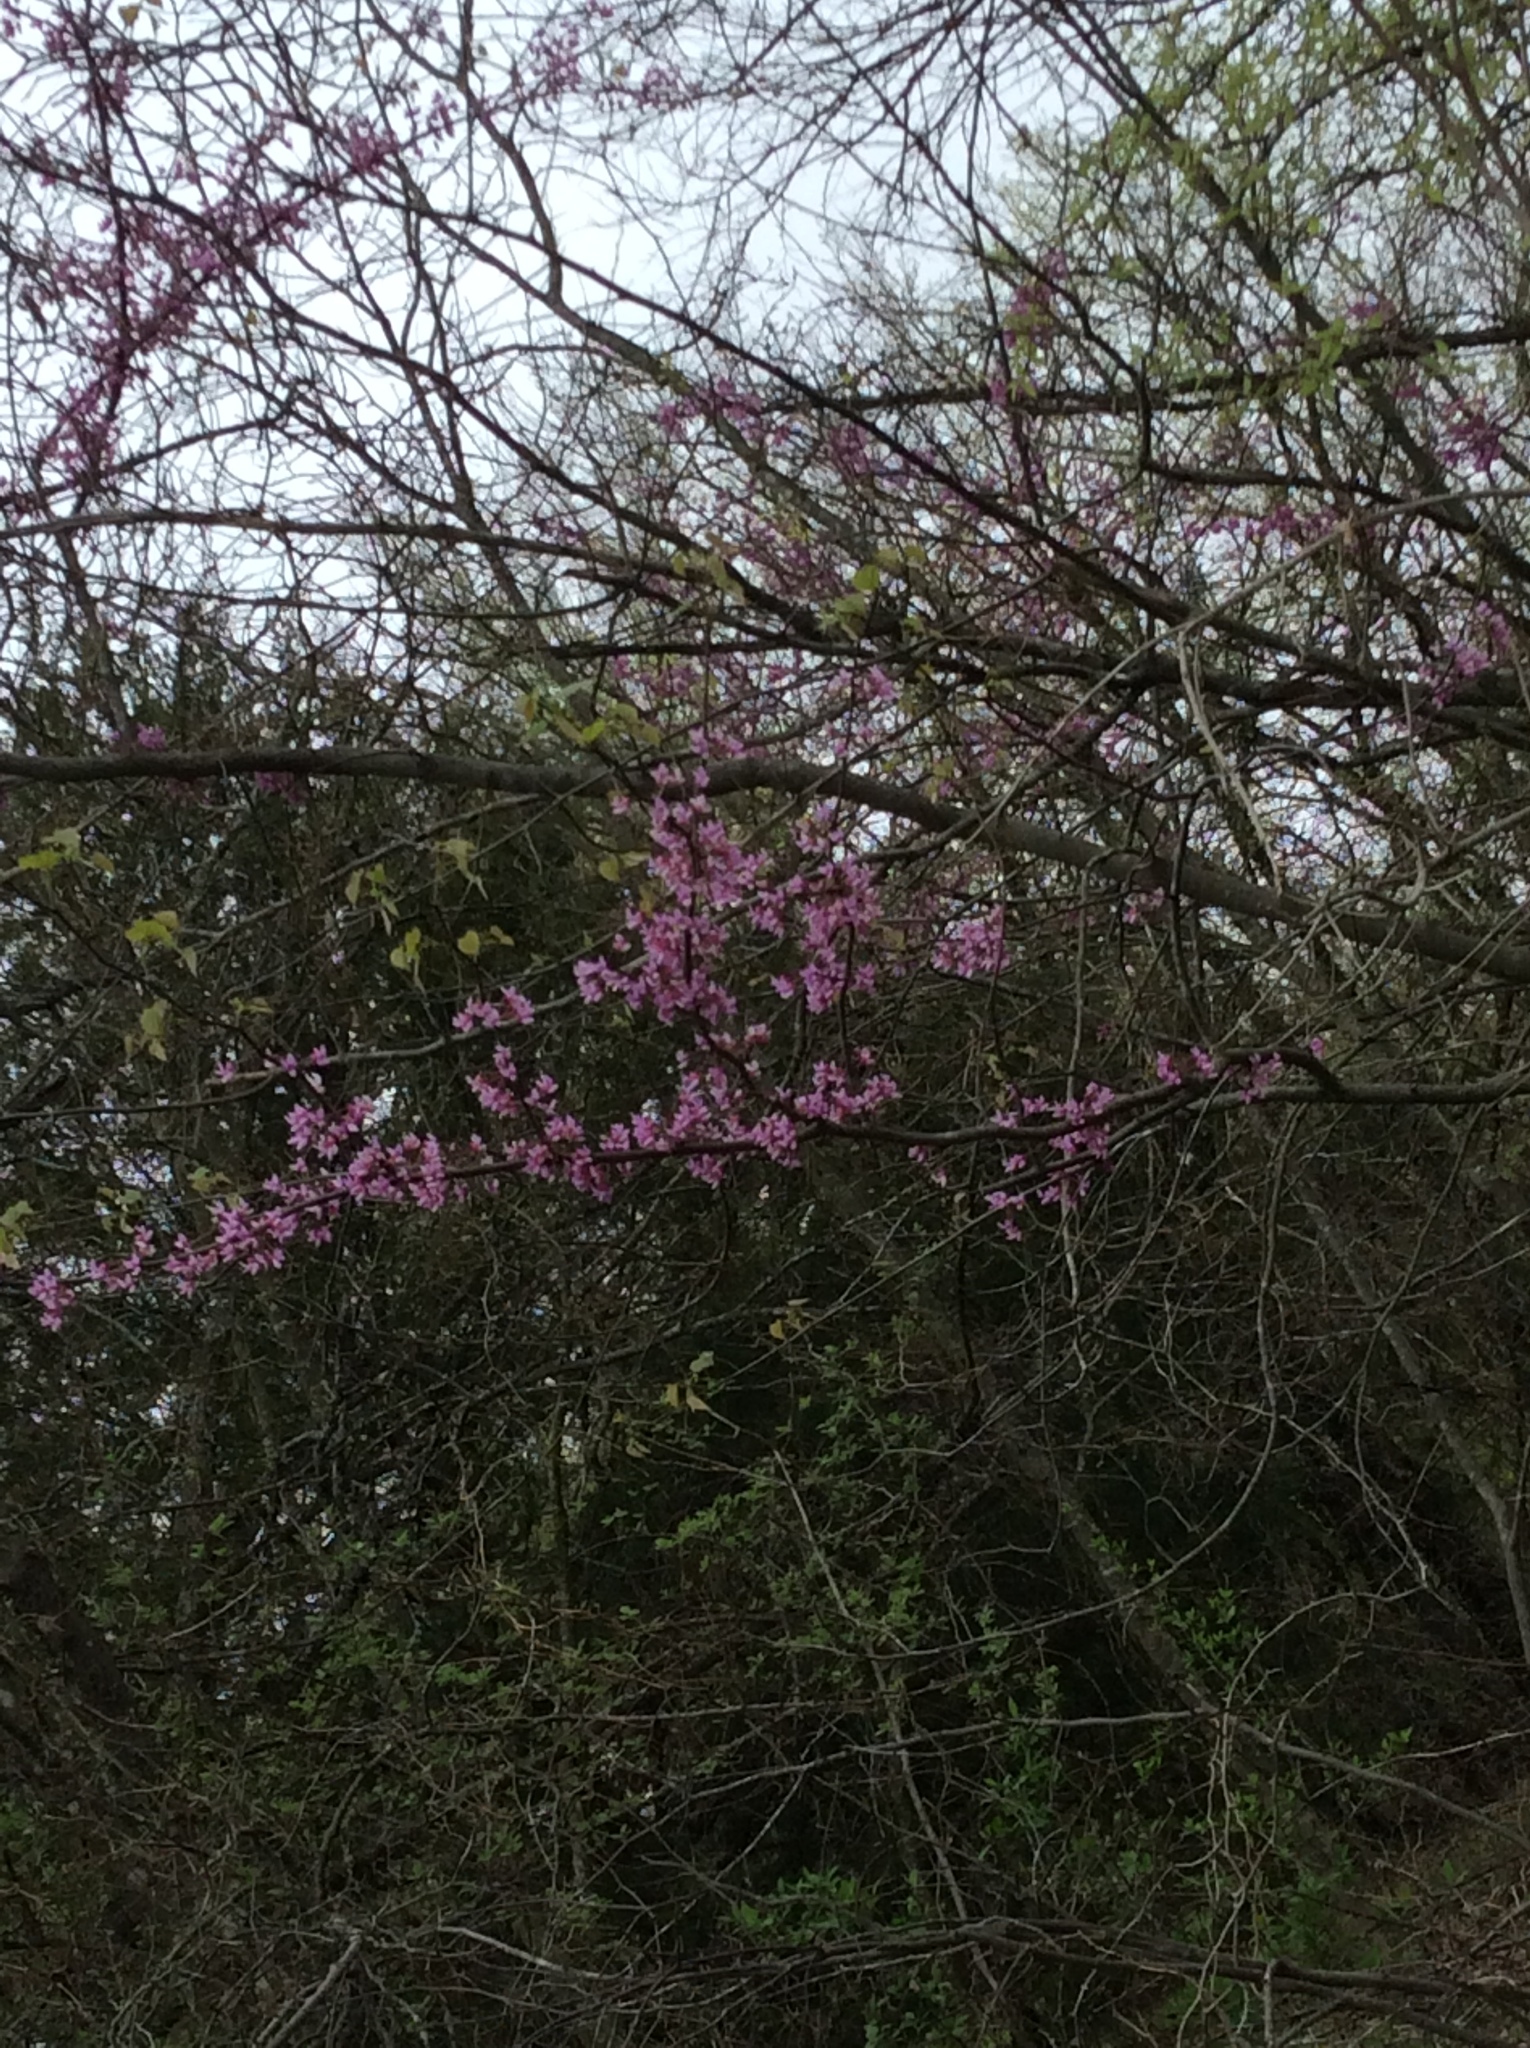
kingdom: Plantae
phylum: Tracheophyta
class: Magnoliopsida
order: Fabales
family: Fabaceae
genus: Cercis
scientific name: Cercis canadensis
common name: Eastern redbud
